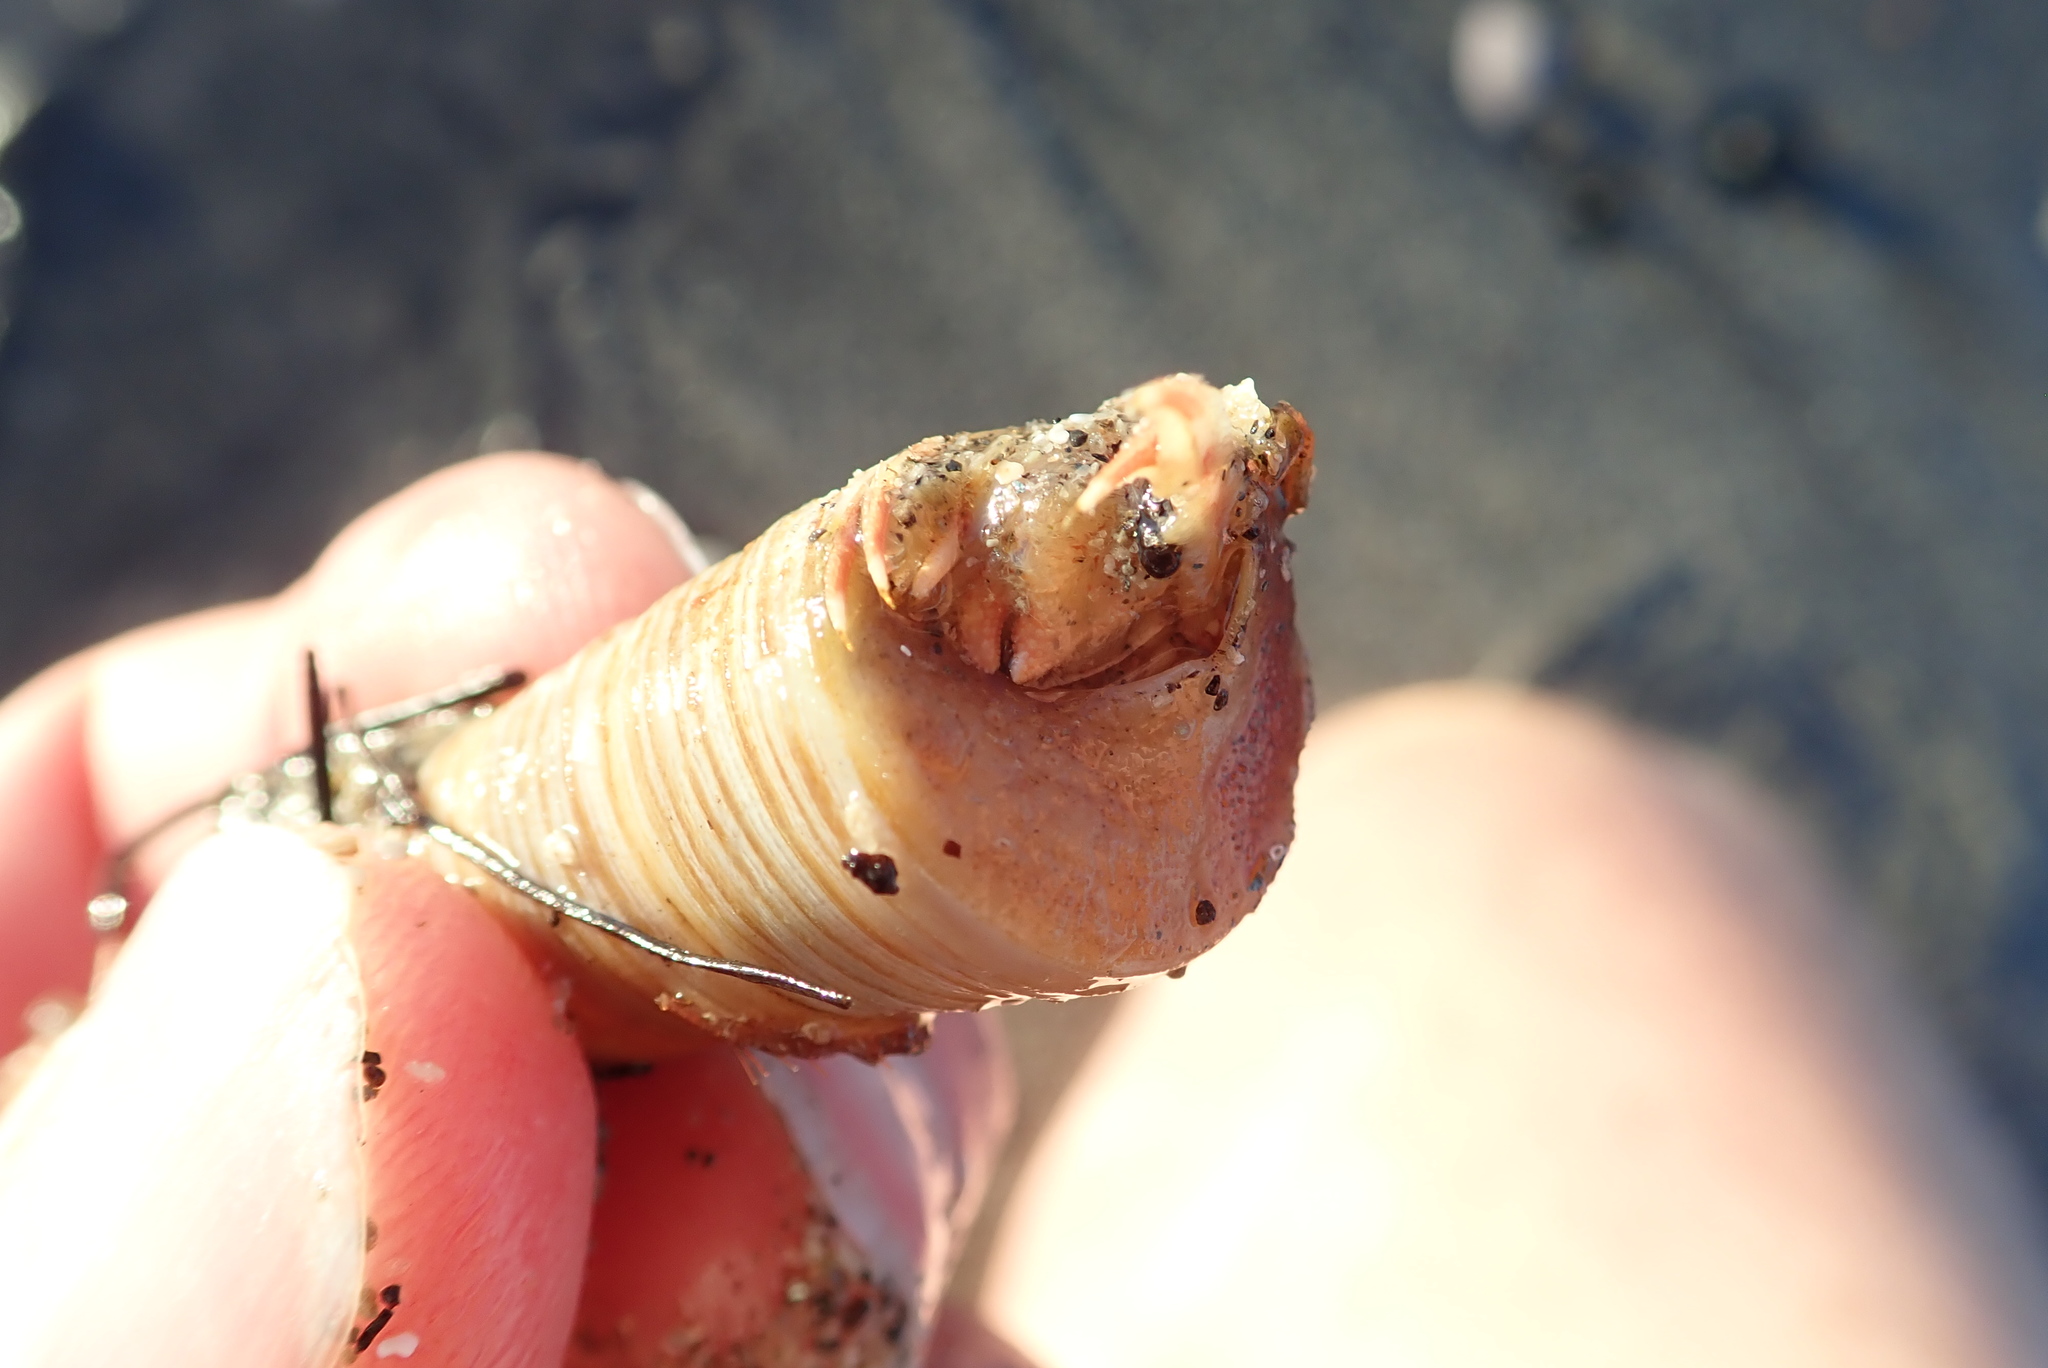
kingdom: Animalia
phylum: Mollusca
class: Gastropoda
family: Turritellidae
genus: Zeacolpus
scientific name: Zeacolpus vittatus
